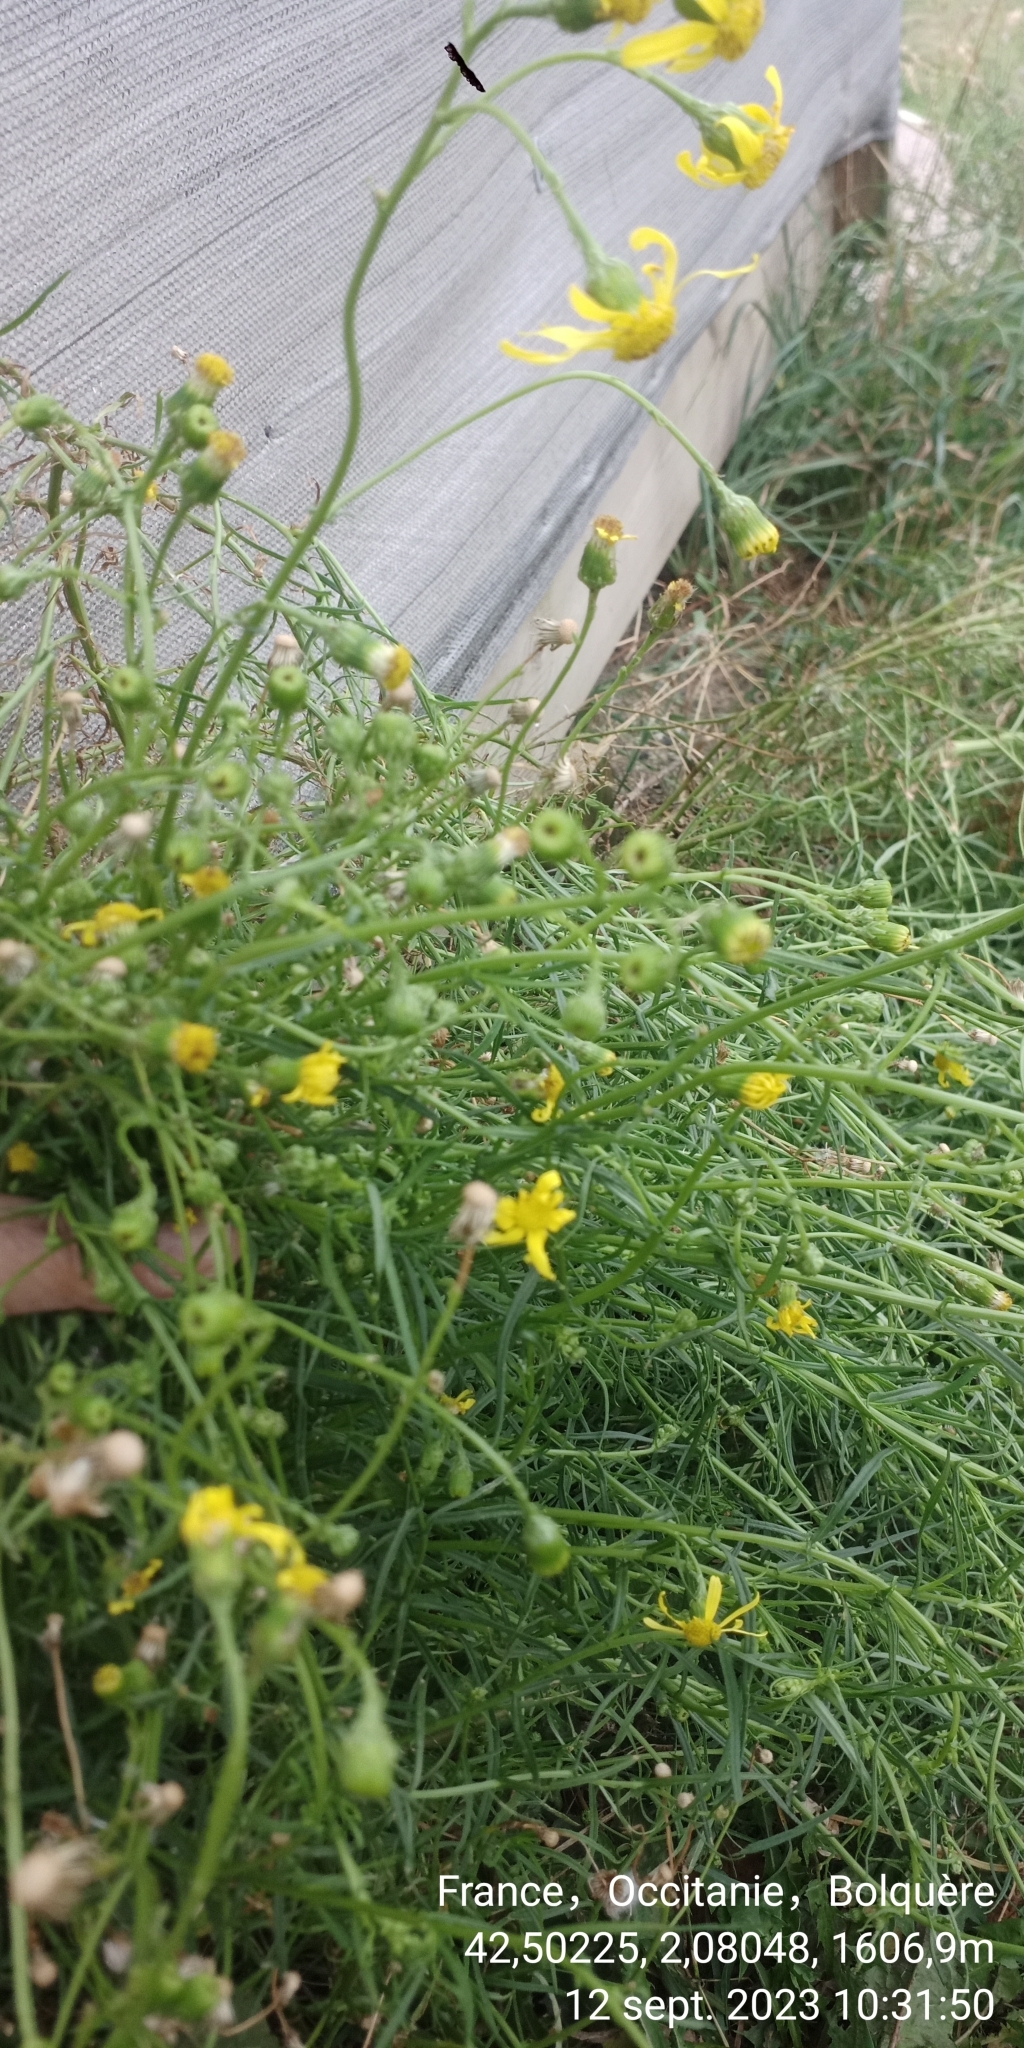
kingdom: Plantae
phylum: Tracheophyta
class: Magnoliopsida
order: Asterales
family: Asteraceae
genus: Senecio
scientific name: Senecio inaequidens
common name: Narrow-leaved ragwort
